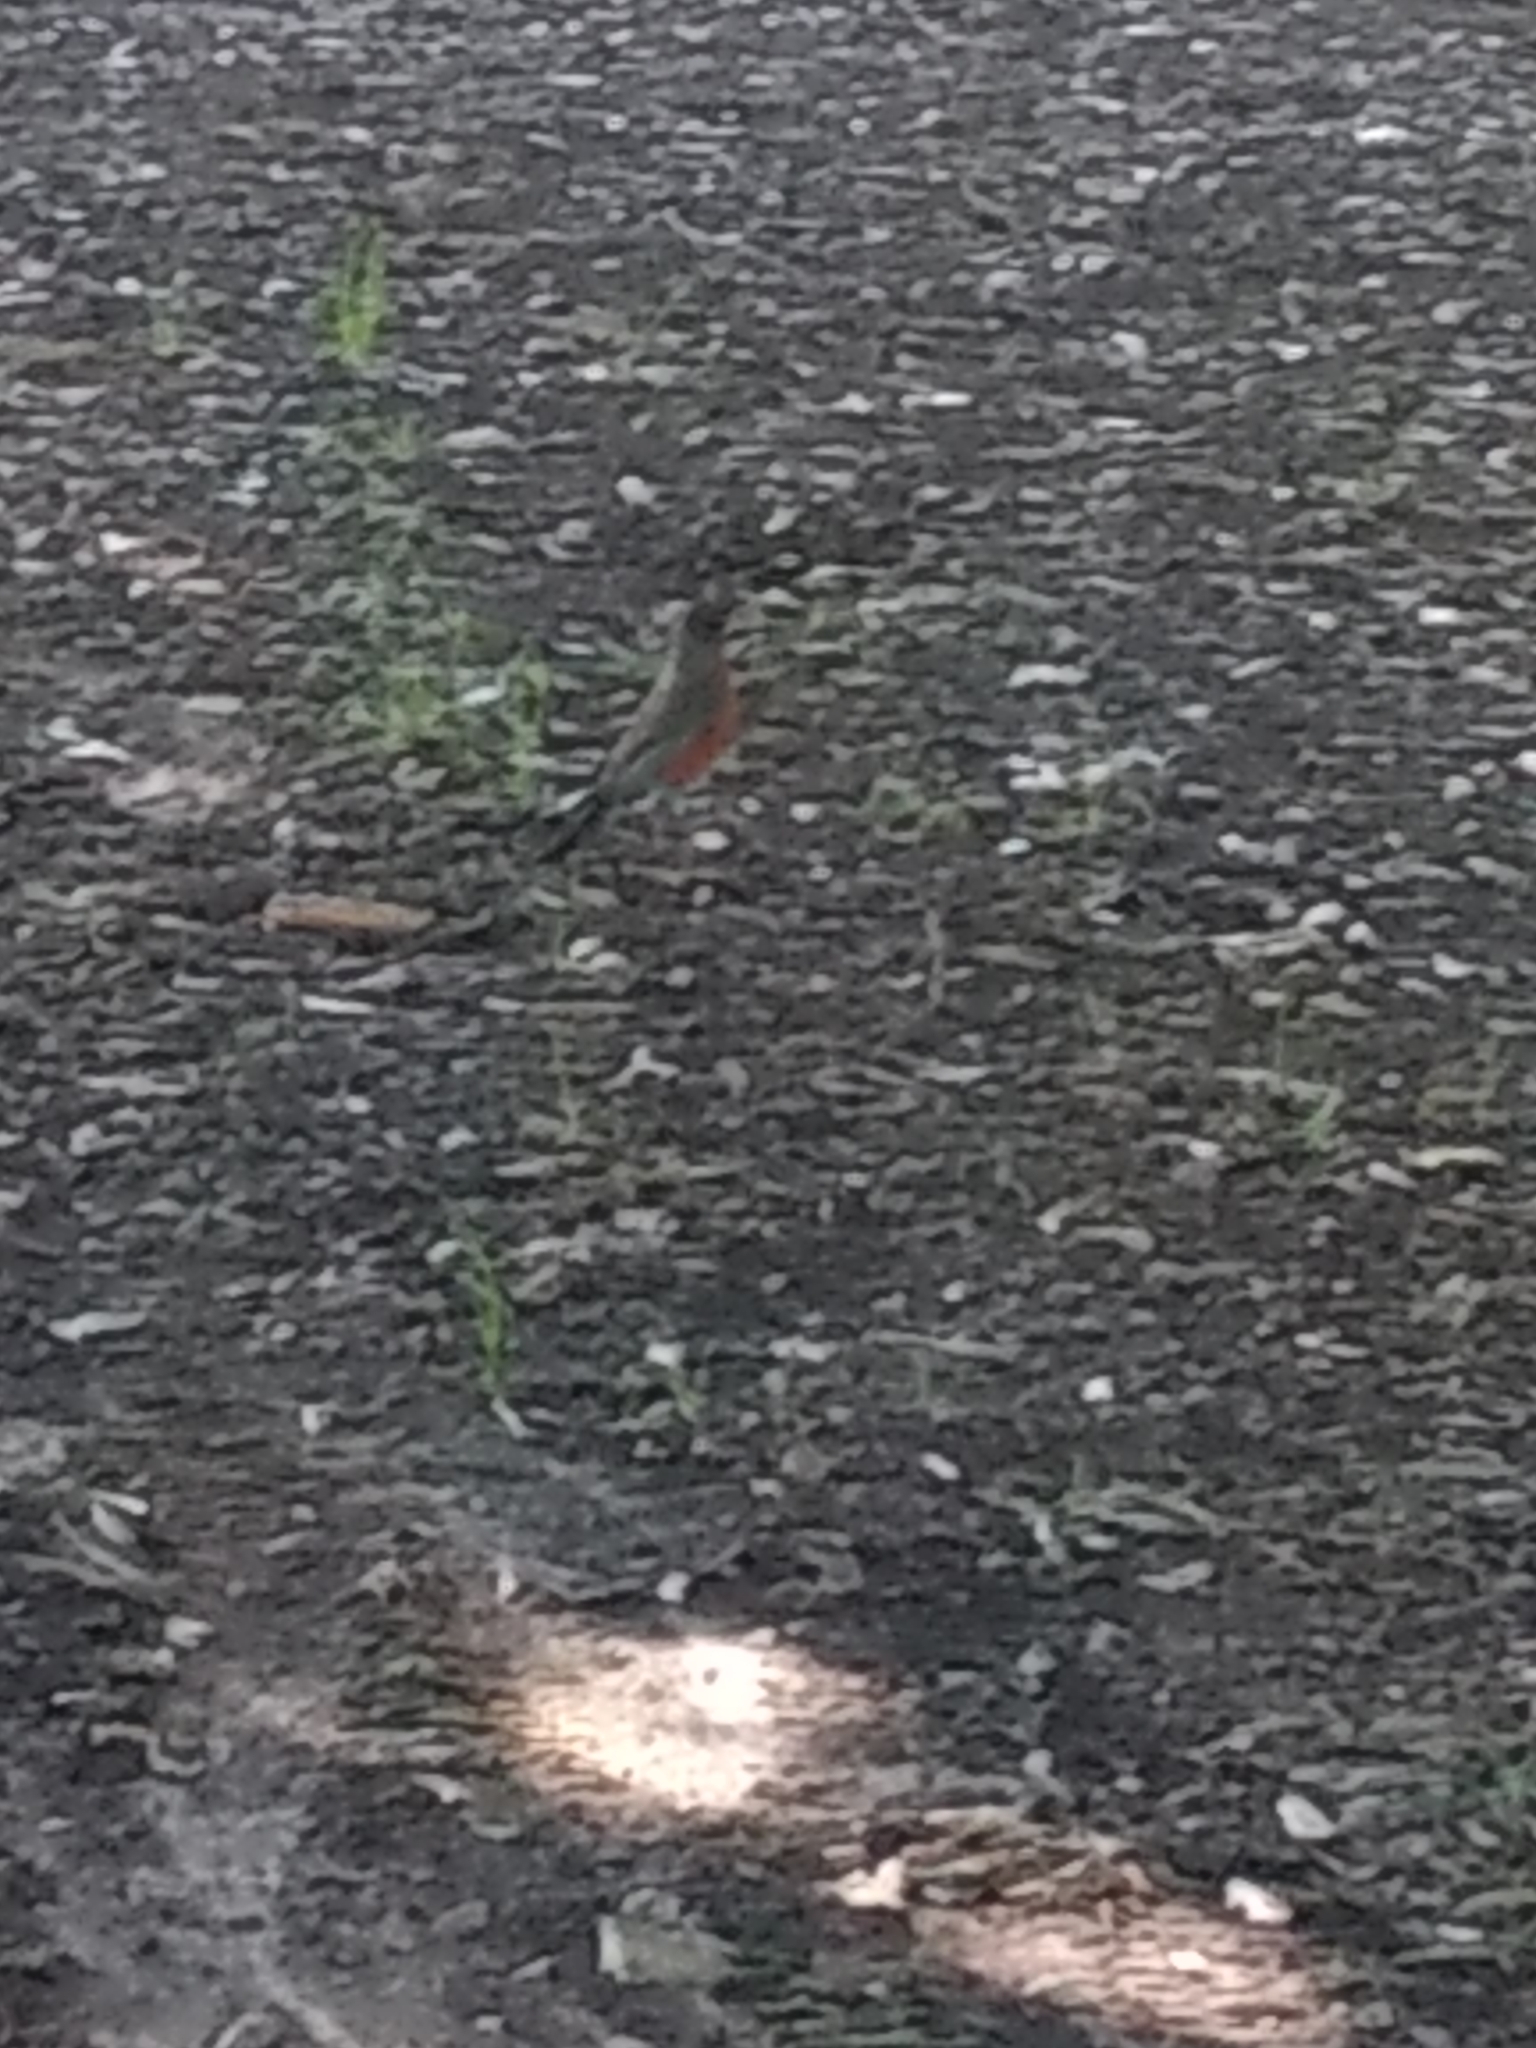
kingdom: Animalia
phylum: Chordata
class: Aves
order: Passeriformes
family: Turdidae
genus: Turdus
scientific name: Turdus migratorius
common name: American robin
